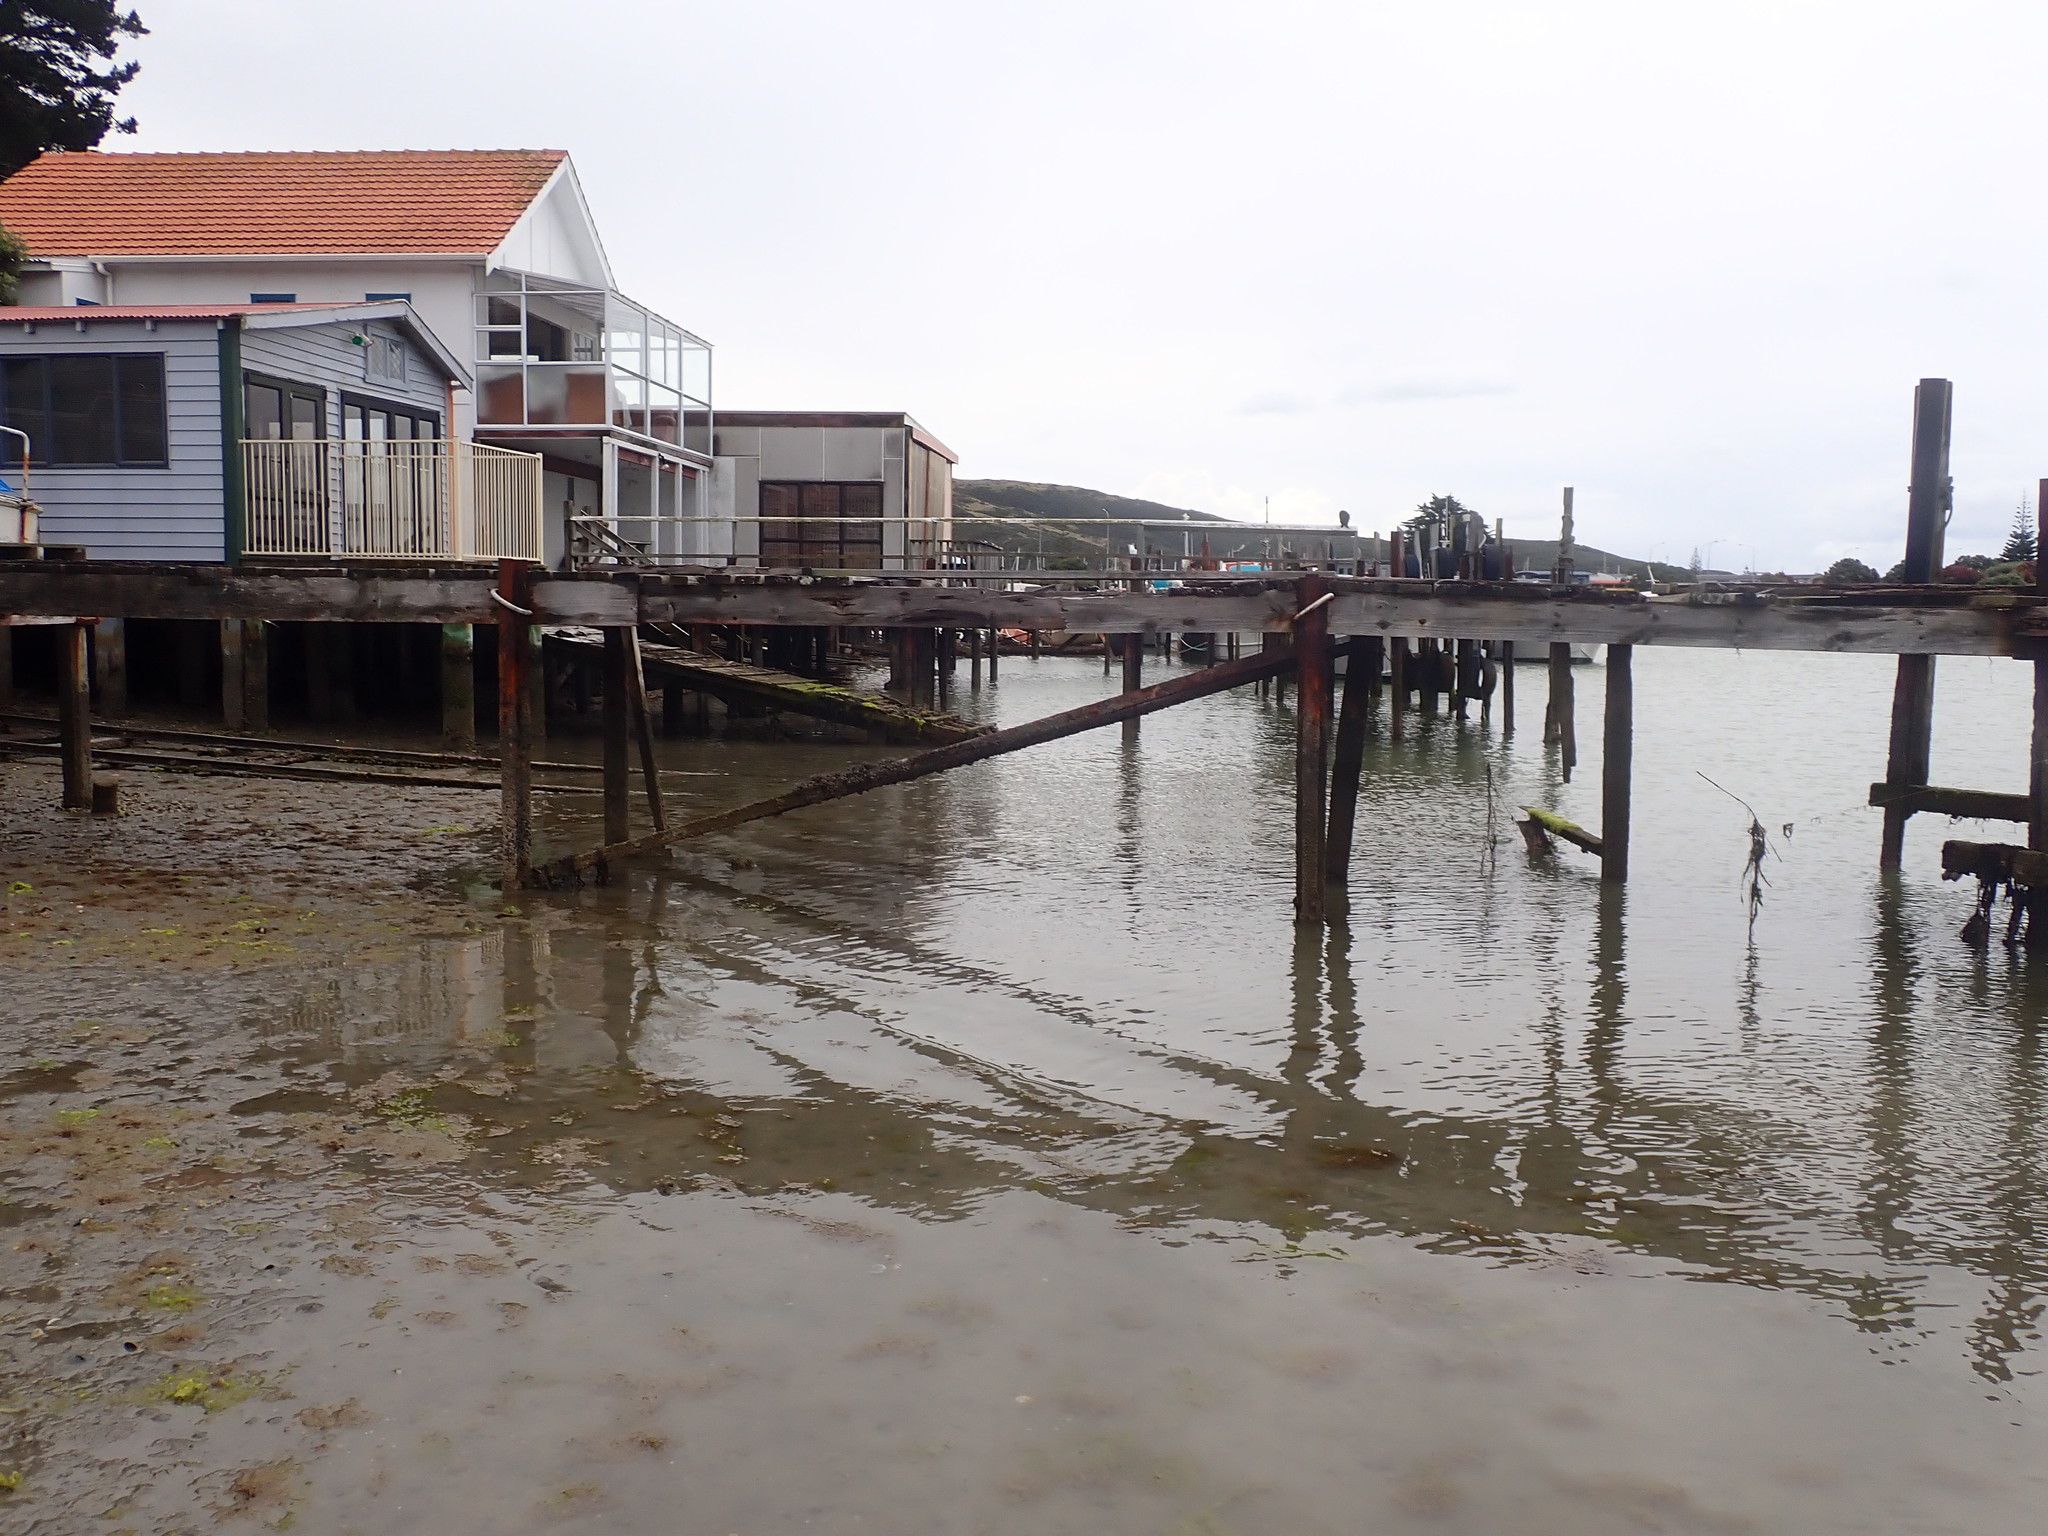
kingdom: Animalia
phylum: Mollusca
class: Gastropoda
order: Neogastropoda
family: Muricidae
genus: Xymene
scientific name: Xymene plebeius
